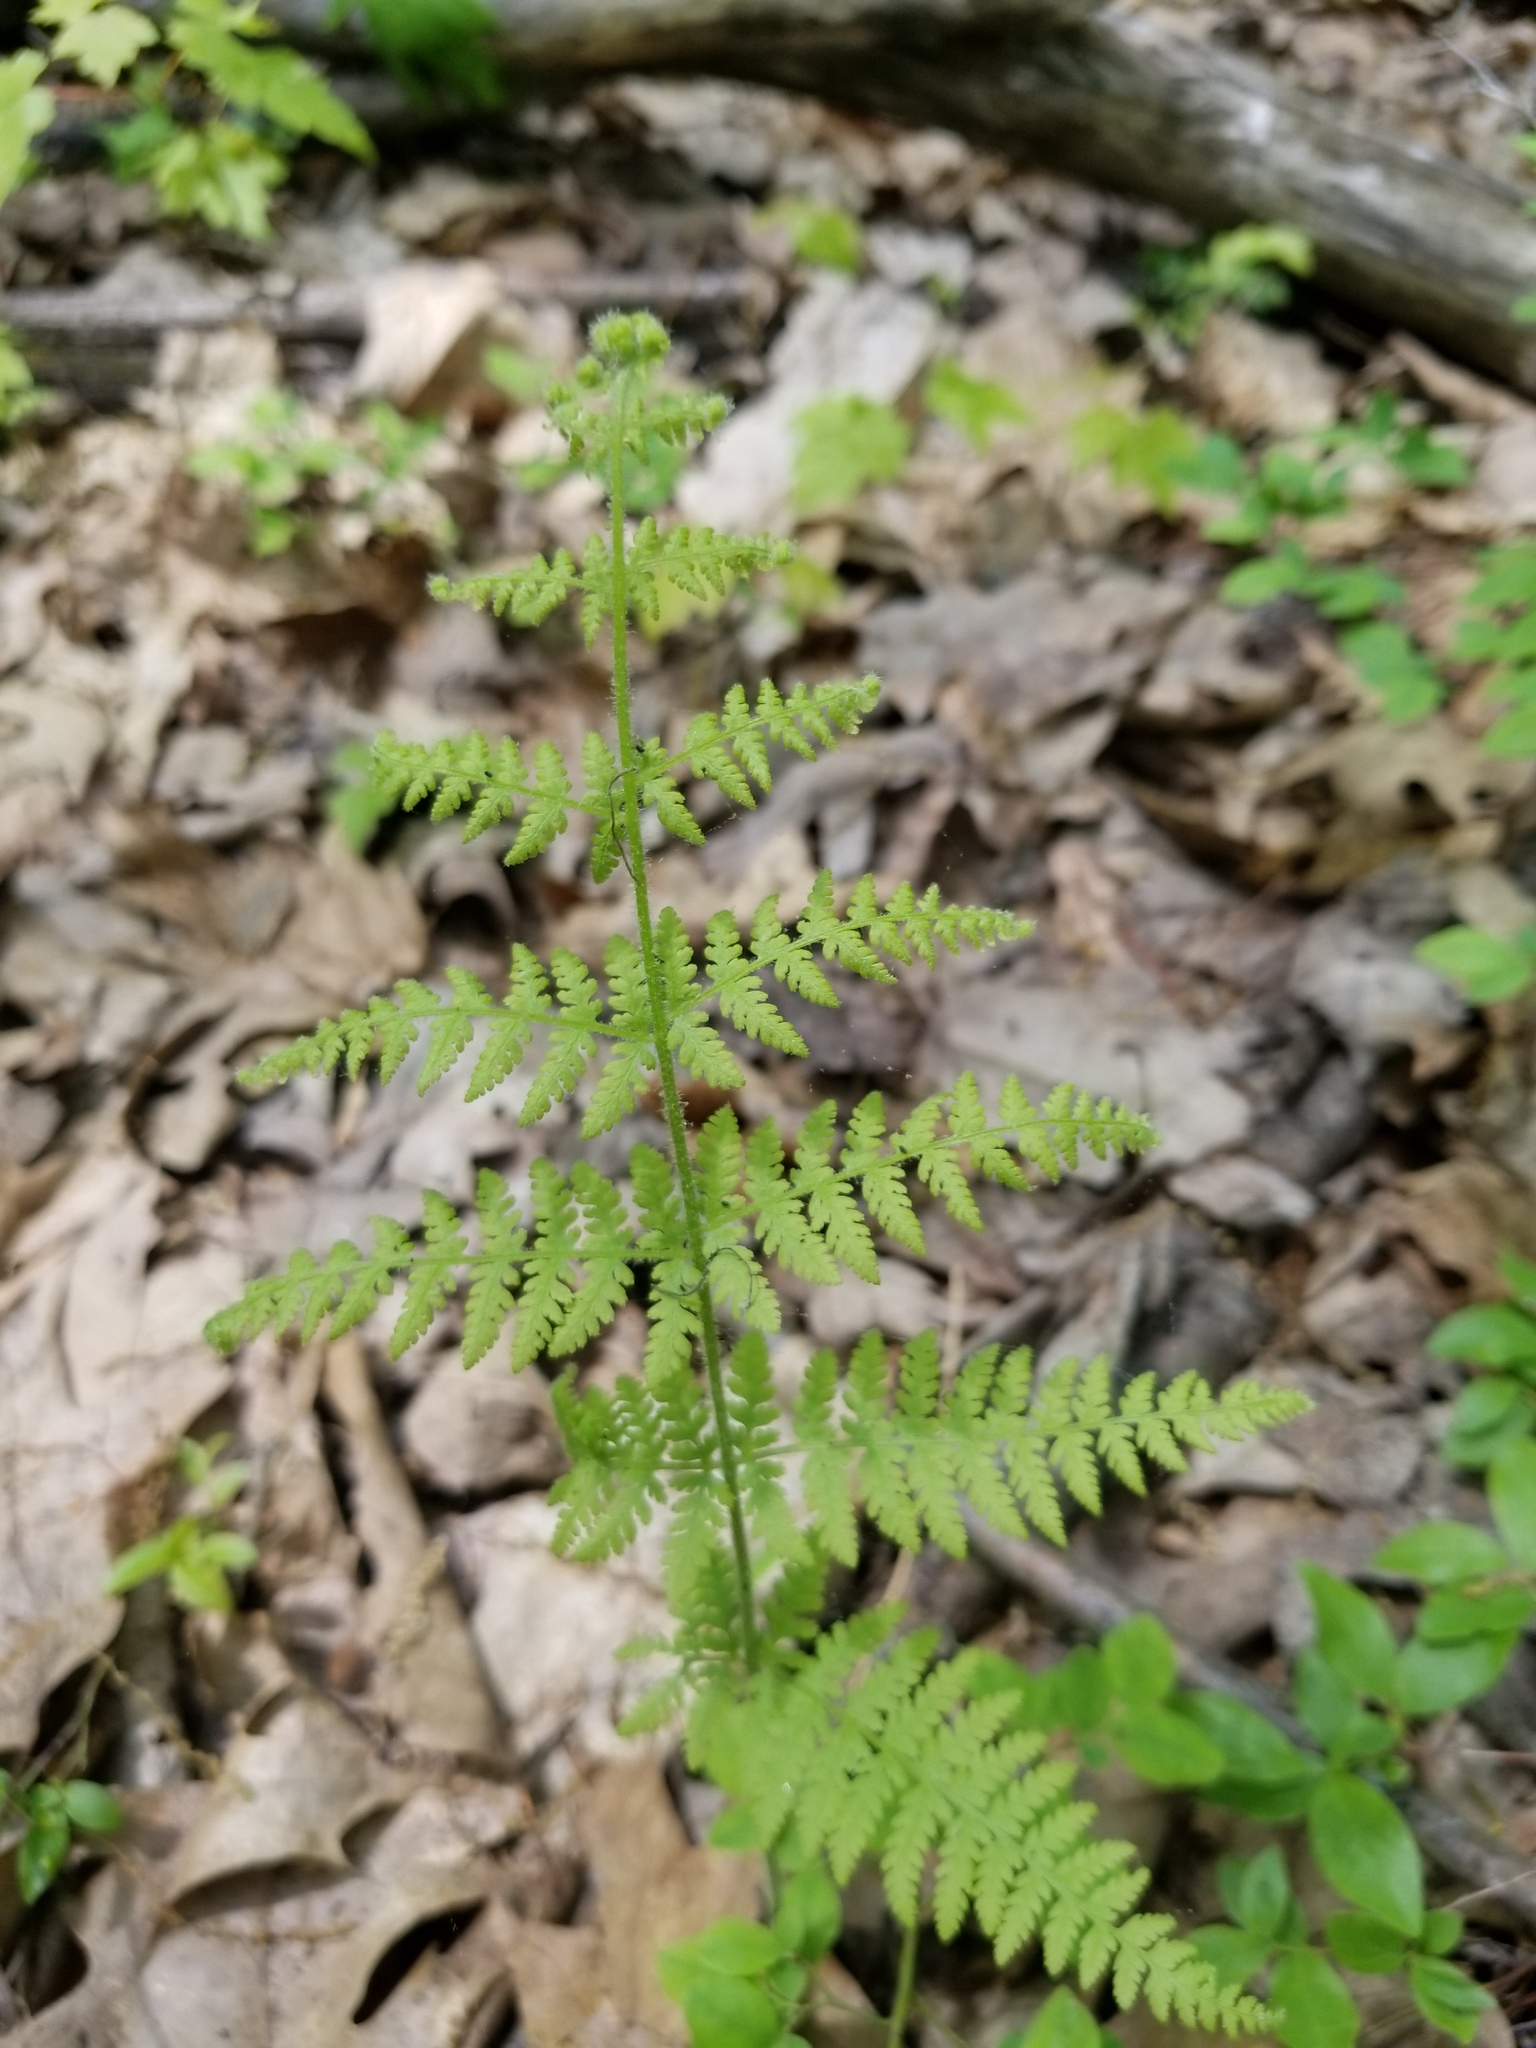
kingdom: Plantae
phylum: Tracheophyta
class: Polypodiopsida
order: Polypodiales
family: Dennstaedtiaceae
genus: Sitobolium
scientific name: Sitobolium punctilobum
